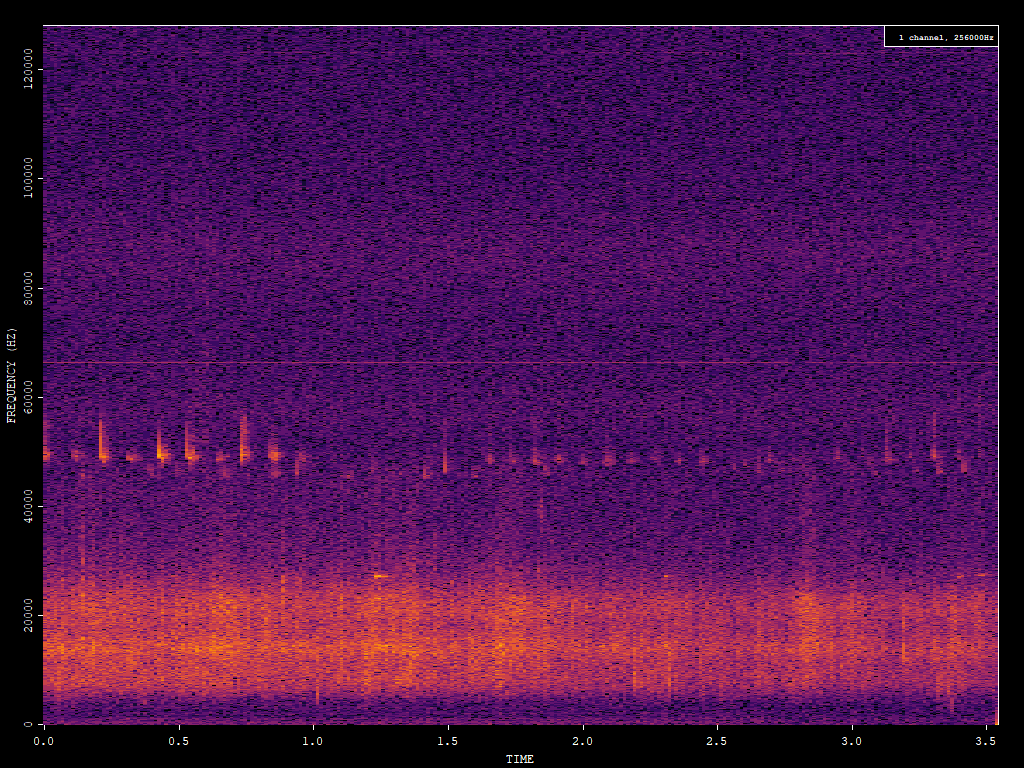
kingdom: Animalia
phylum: Chordata
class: Mammalia
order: Chiroptera
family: Vespertilionidae
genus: Pipistrellus
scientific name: Pipistrellus pipistrellus
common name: Common pipistrelle
